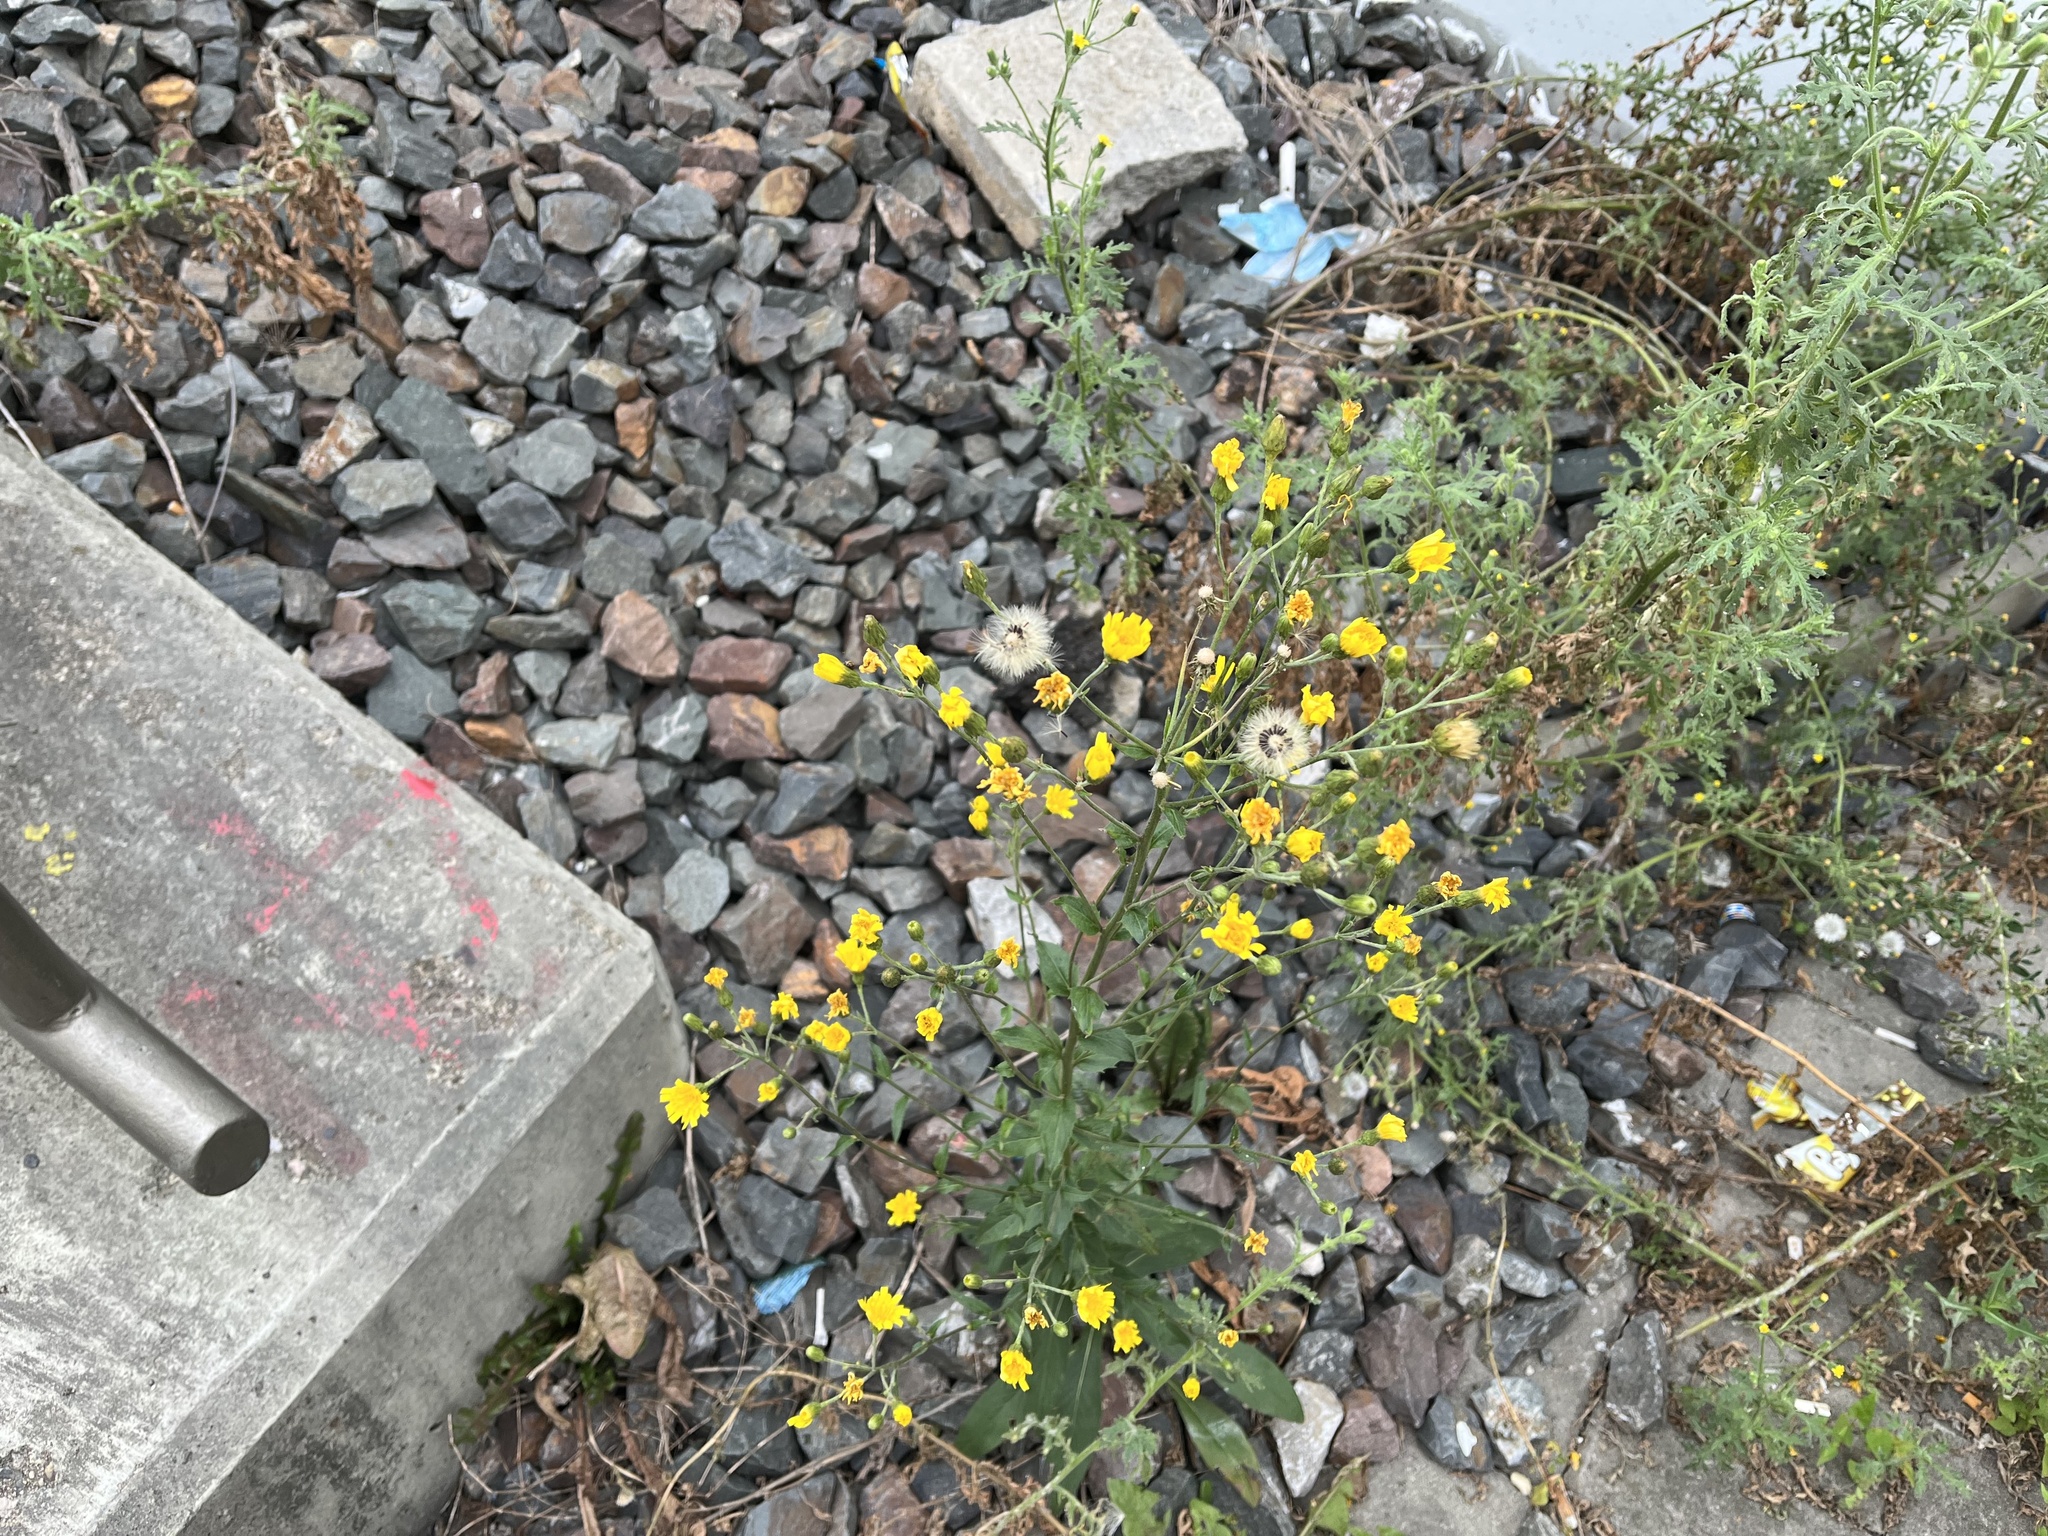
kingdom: Plantae
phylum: Tracheophyta
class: Magnoliopsida
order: Asterales
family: Asteraceae
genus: Hieracium
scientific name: Hieracium sabaudum
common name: New england hawkweed
